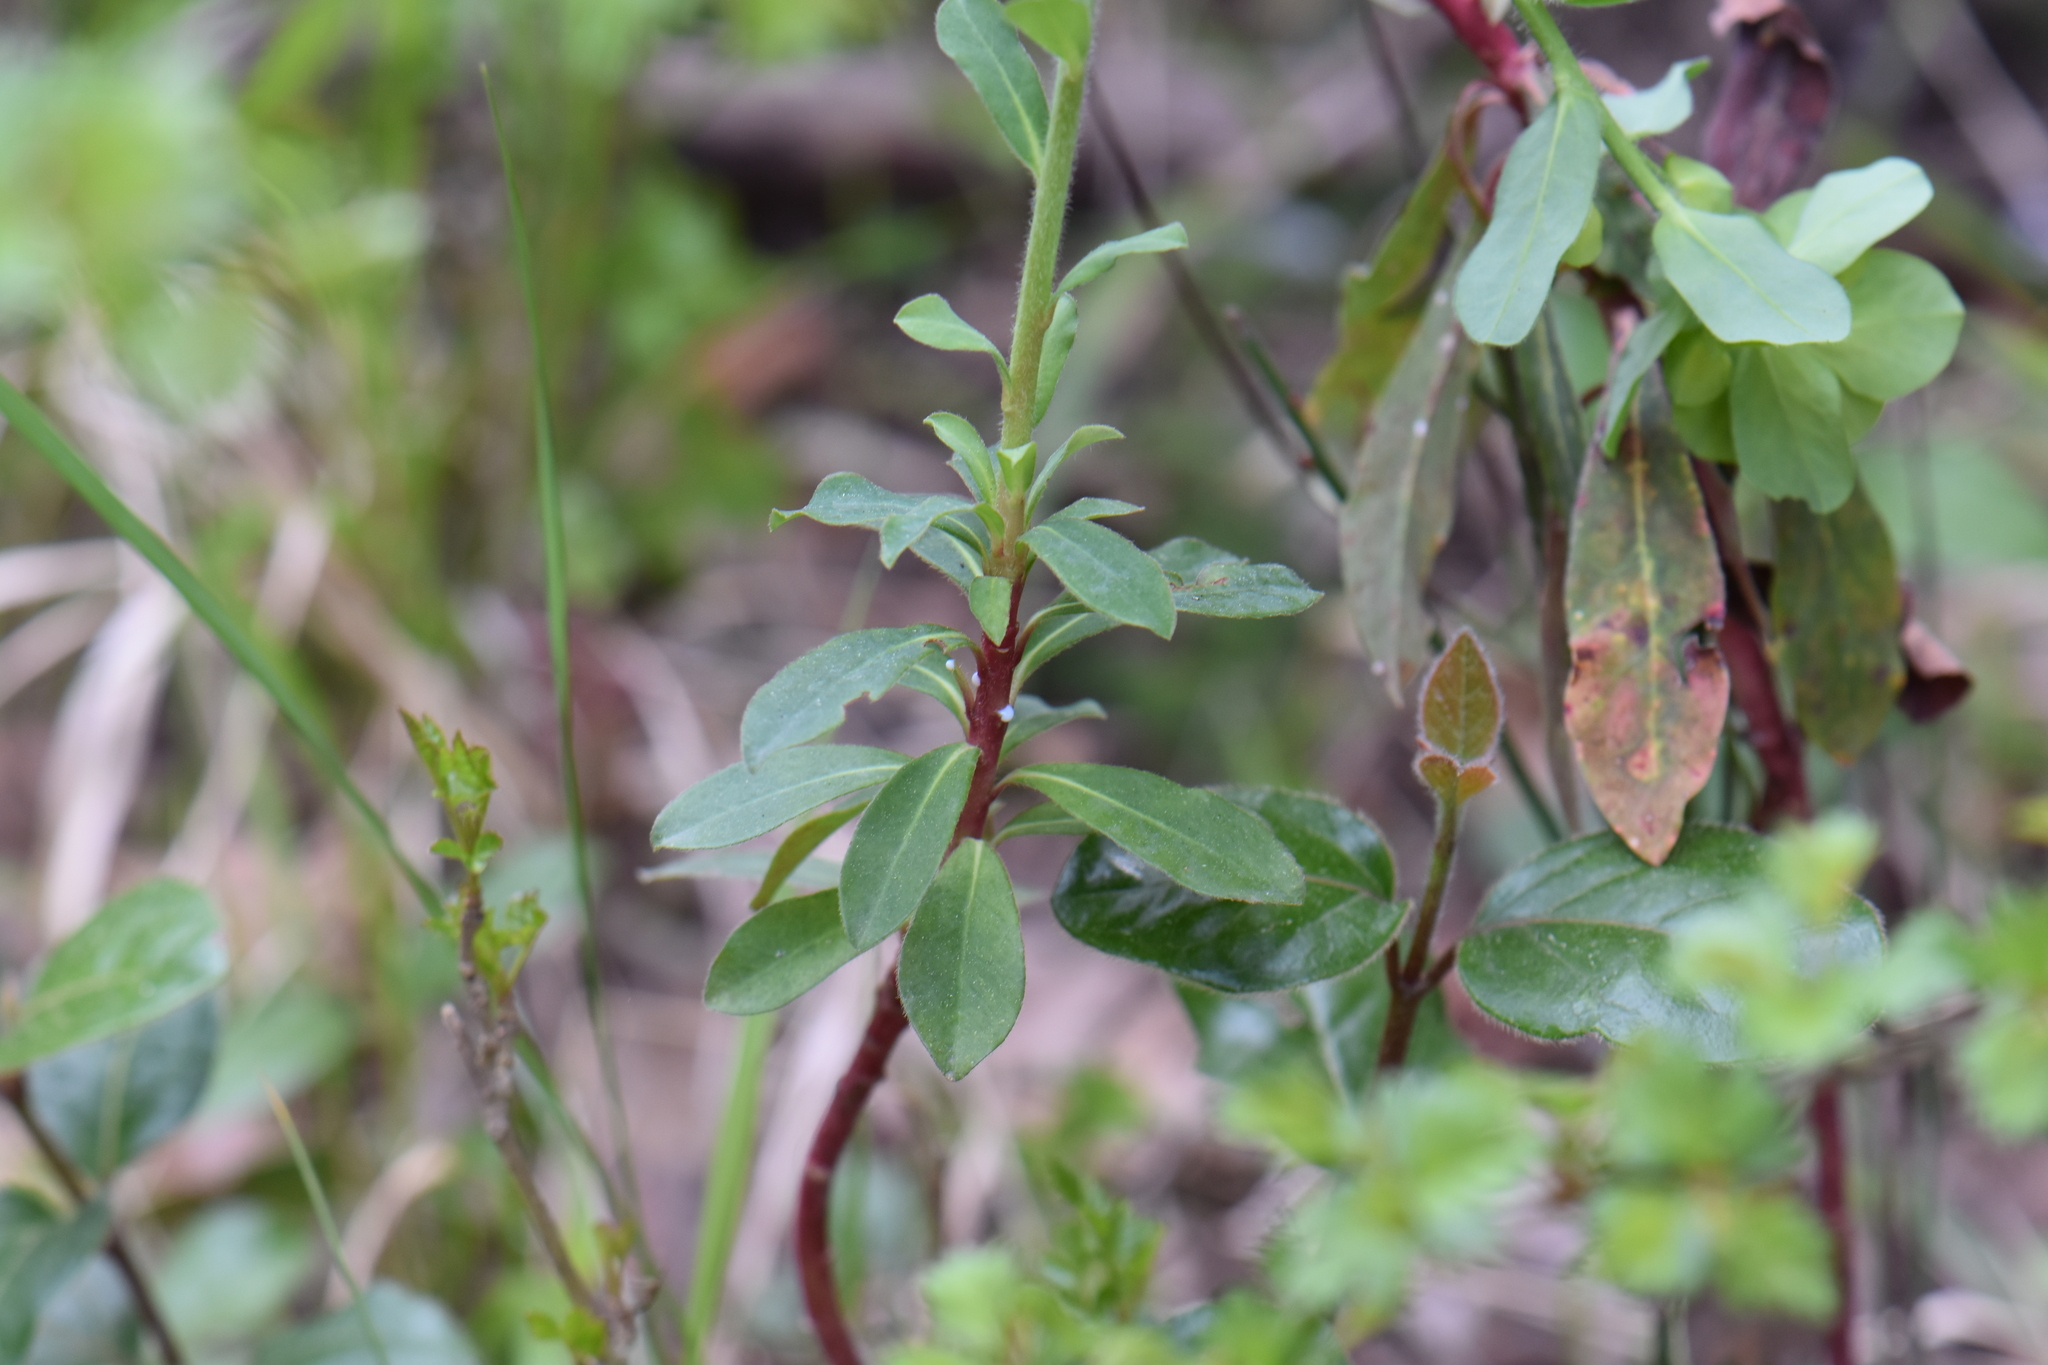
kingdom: Plantae
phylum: Tracheophyta
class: Magnoliopsida
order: Malpighiales
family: Euphorbiaceae
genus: Euphorbia
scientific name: Euphorbia amygdaloides
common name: Wood spurge
